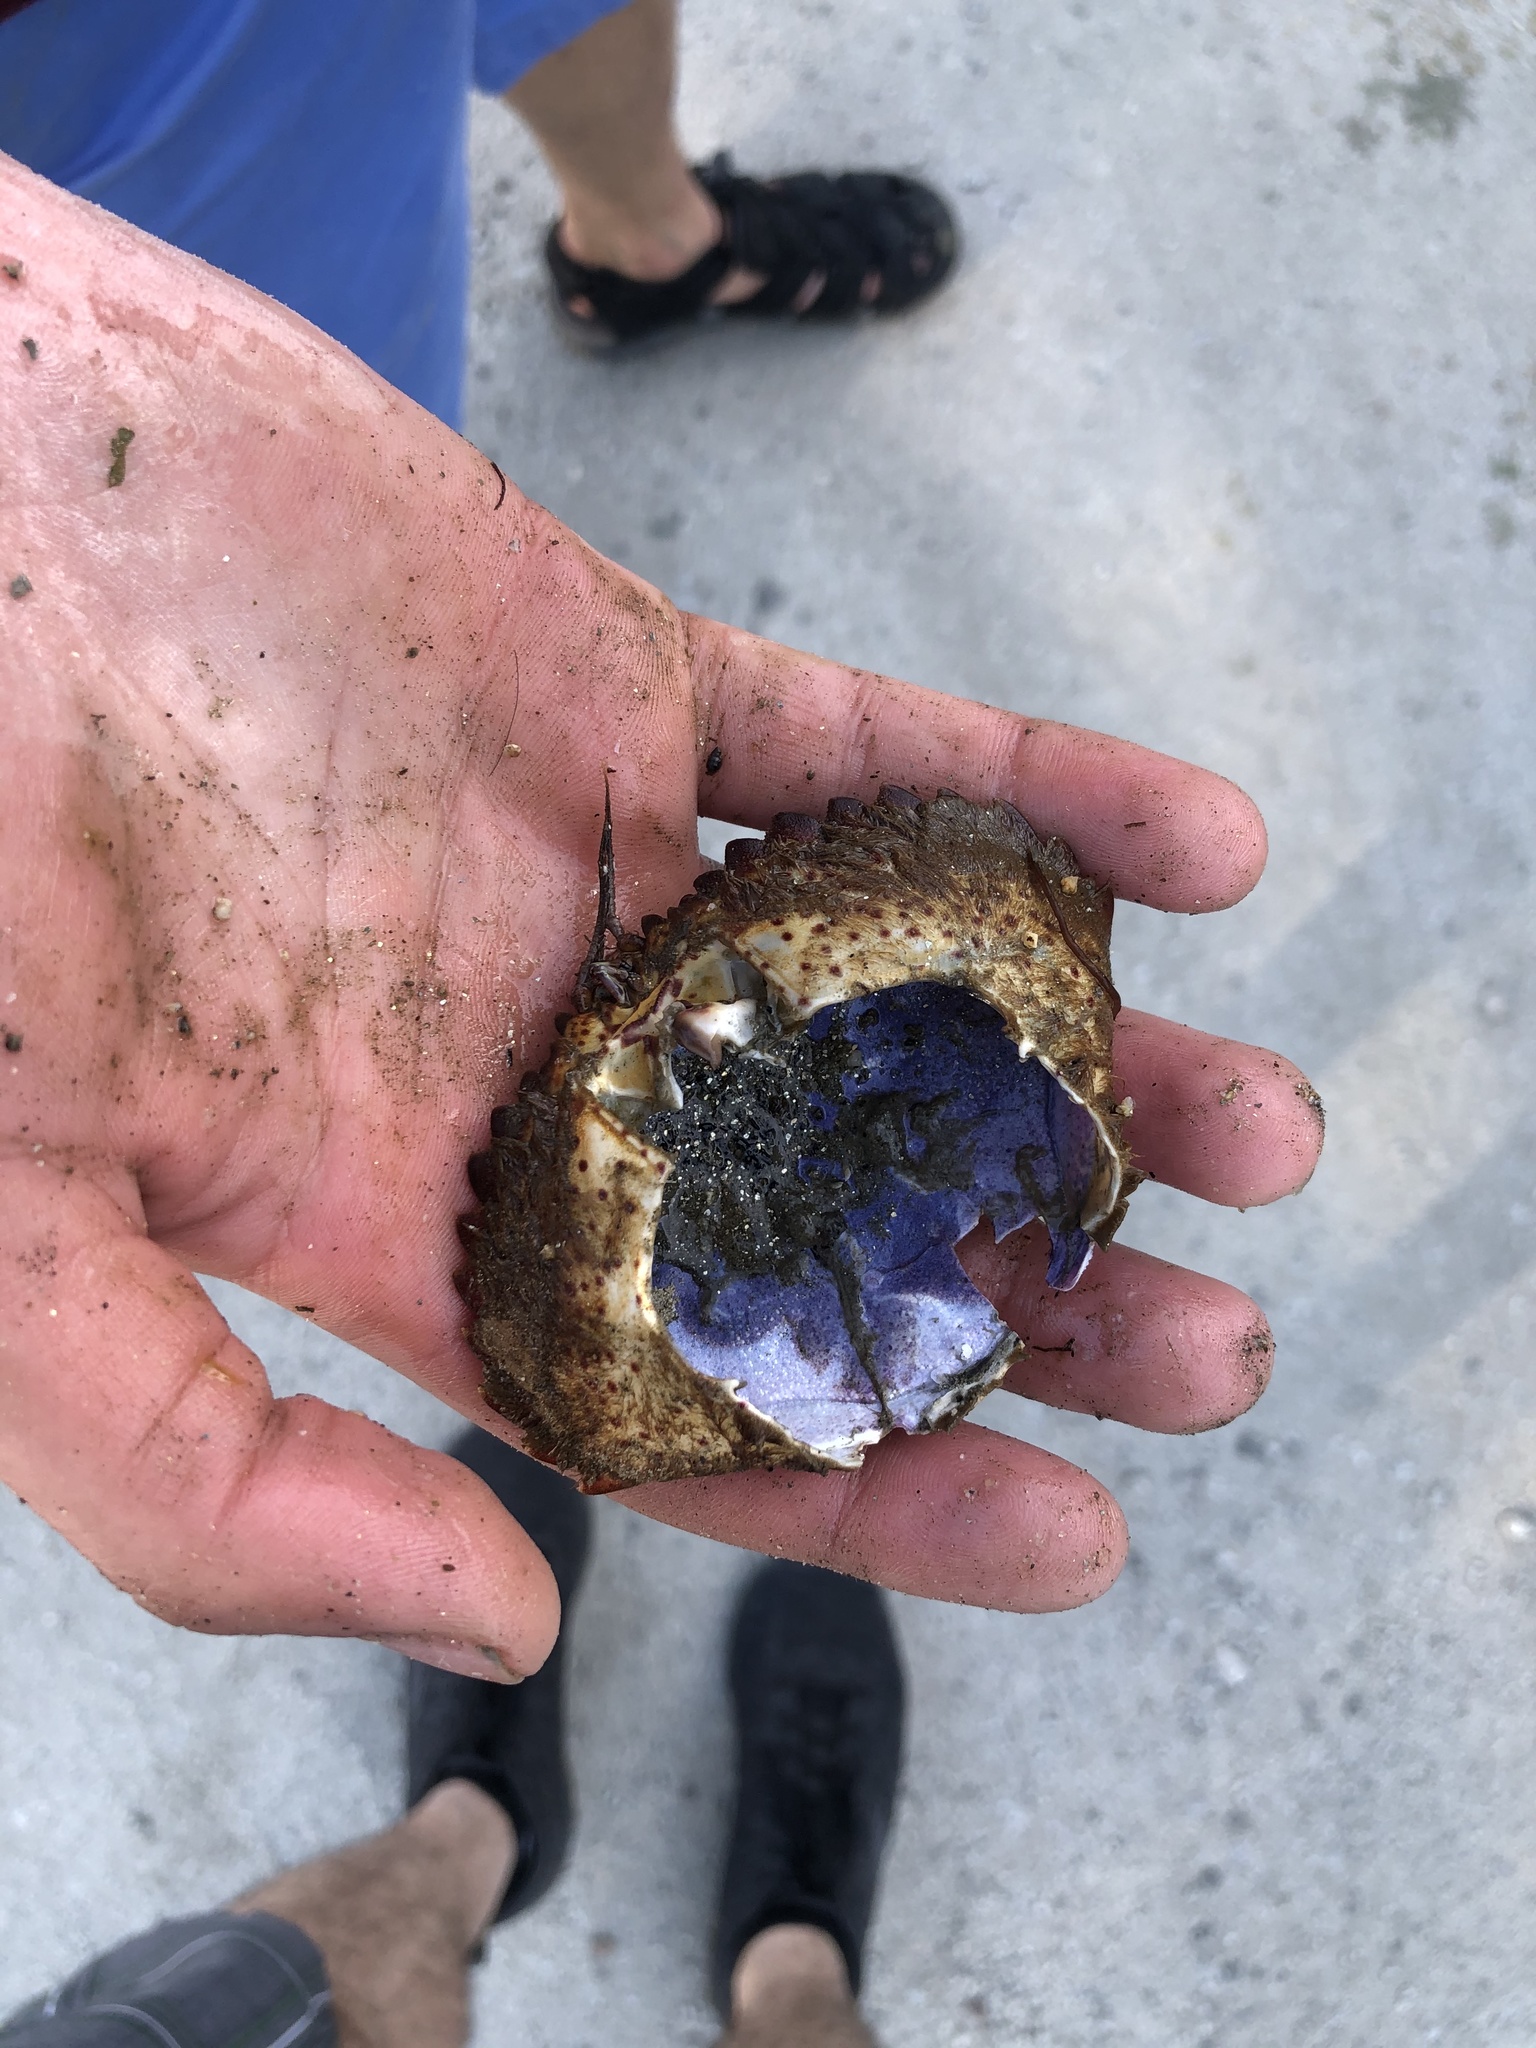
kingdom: Animalia
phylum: Arthropoda
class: Malacostraca
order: Decapoda
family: Cancridae
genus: Romaleon
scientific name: Romaleon antennarium
